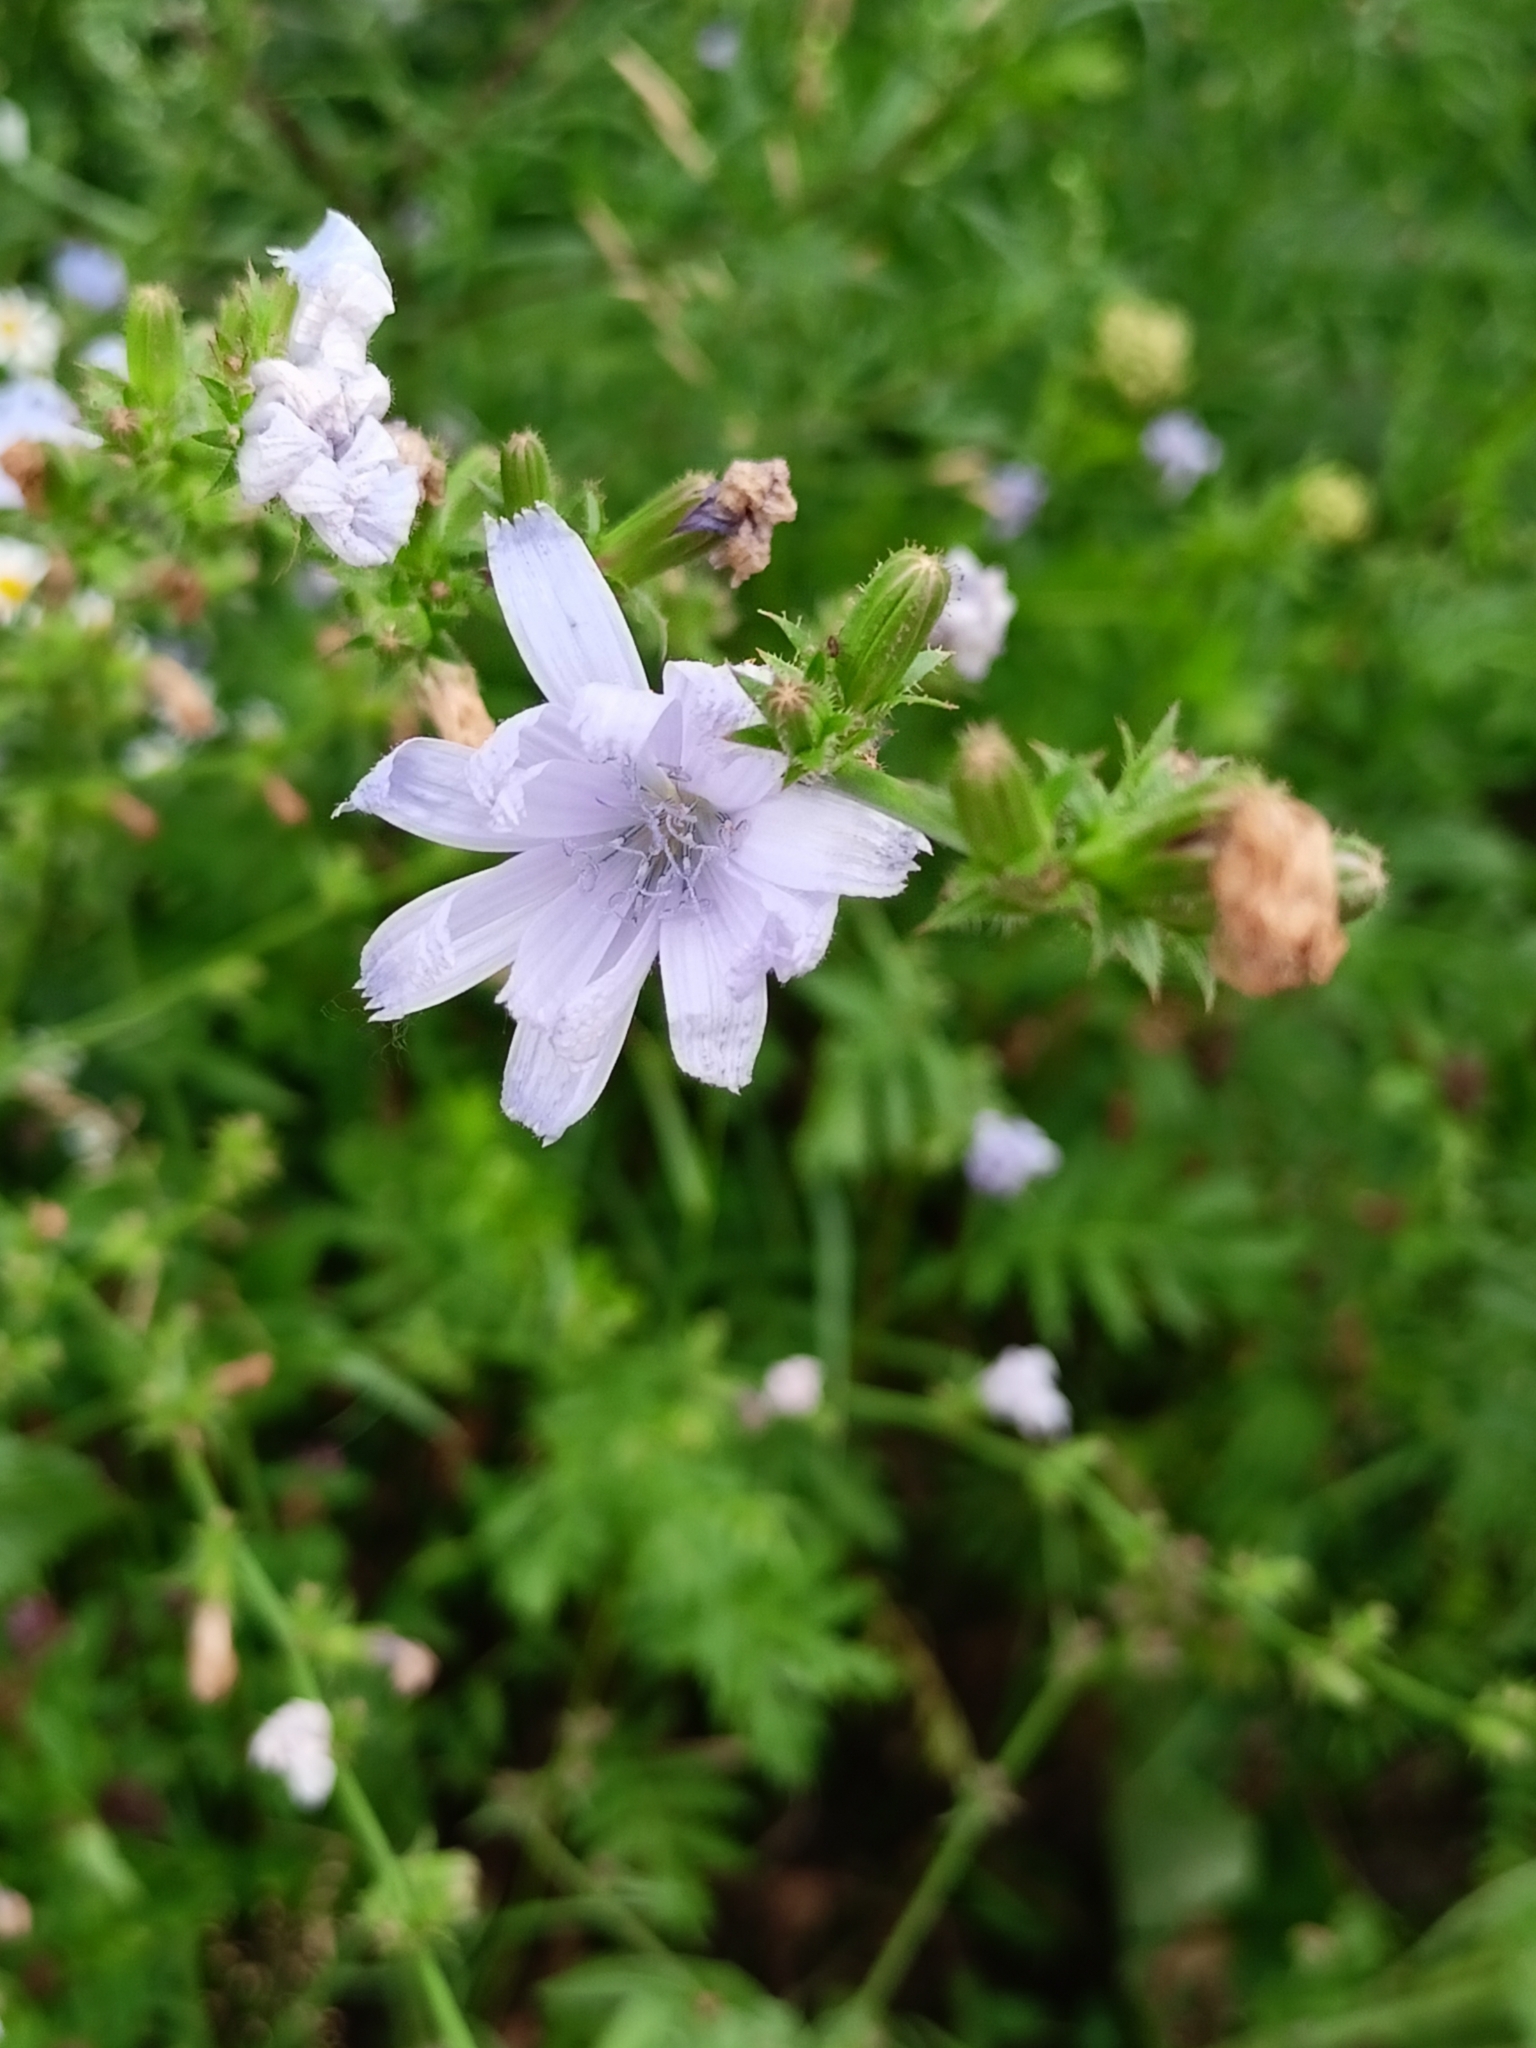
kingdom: Plantae
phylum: Tracheophyta
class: Magnoliopsida
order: Asterales
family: Asteraceae
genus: Cichorium
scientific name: Cichorium intybus
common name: Chicory
